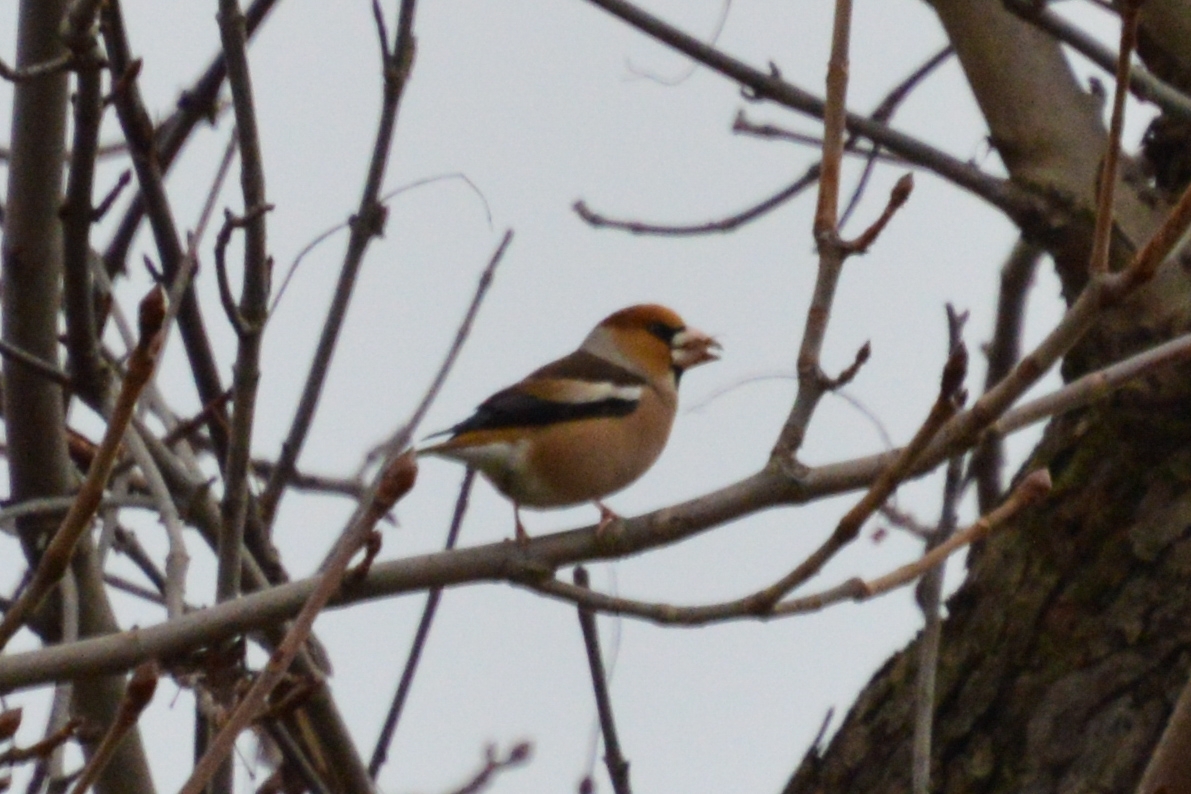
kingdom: Animalia
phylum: Chordata
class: Aves
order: Passeriformes
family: Fringillidae
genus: Coccothraustes
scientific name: Coccothraustes coccothraustes
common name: Hawfinch
